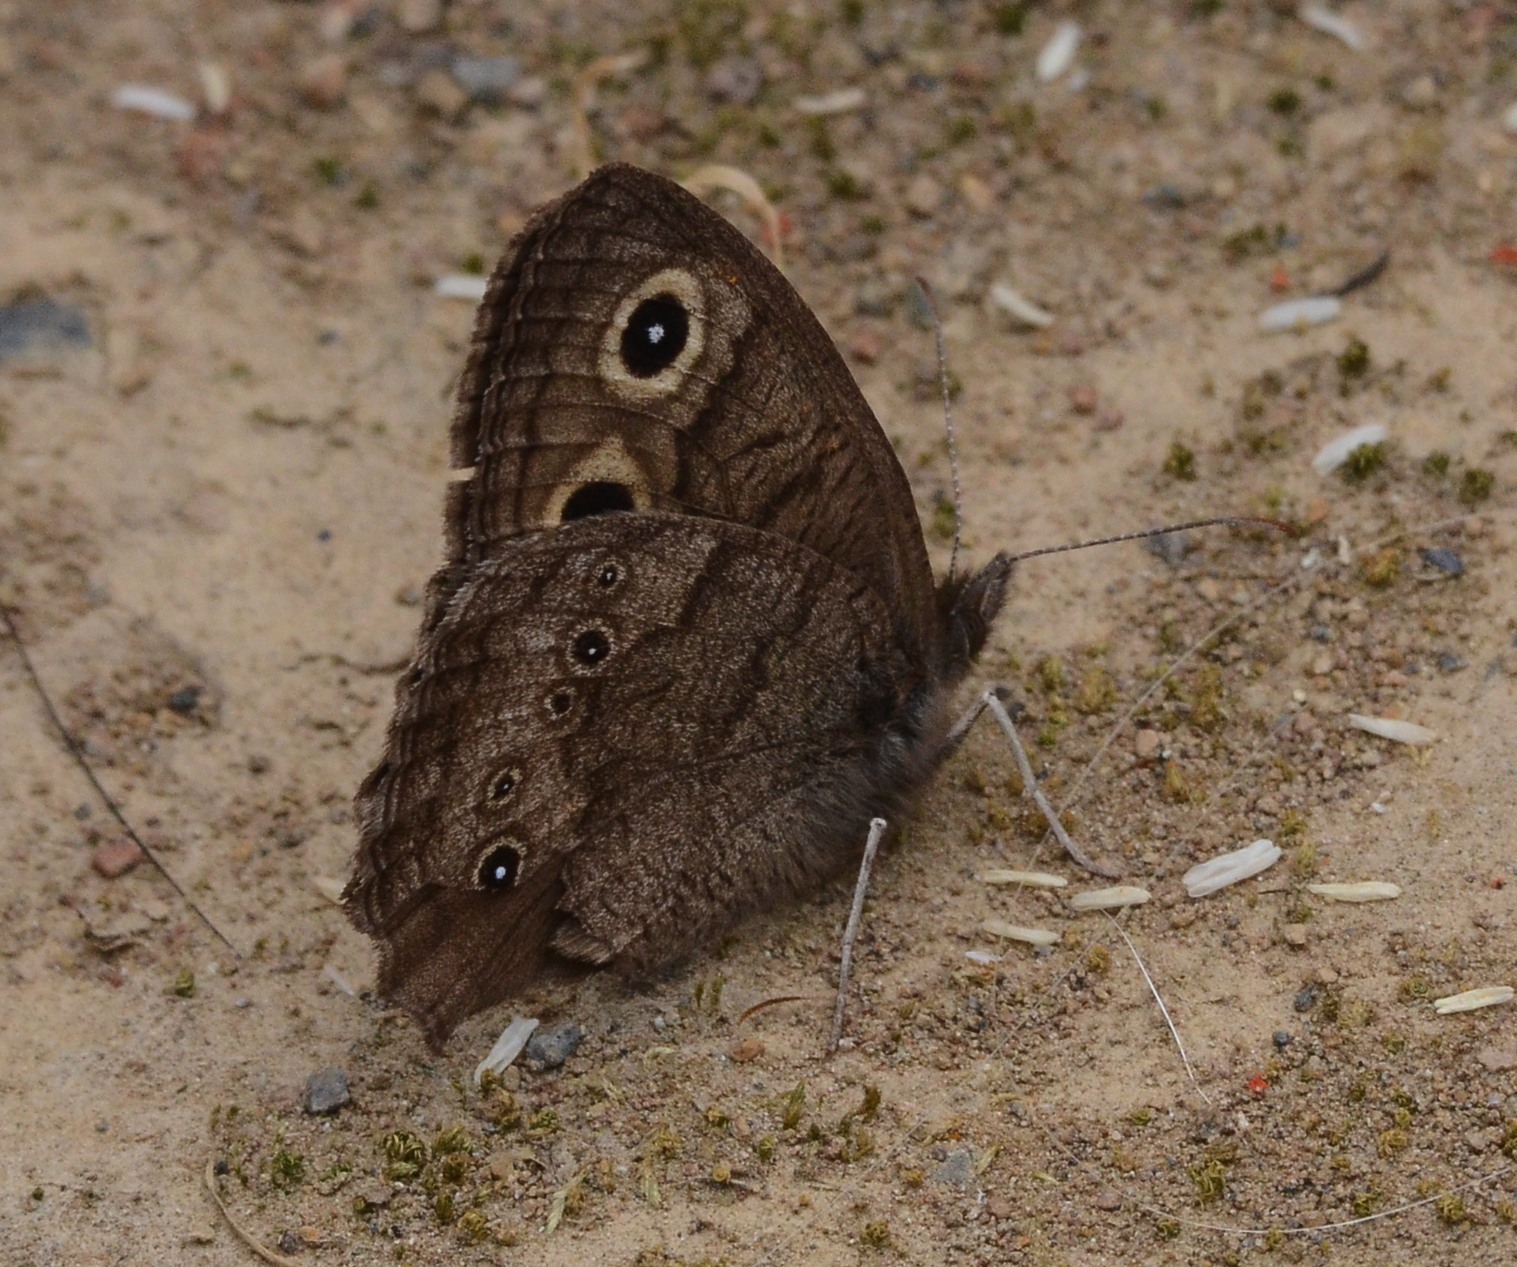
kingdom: Animalia
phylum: Arthropoda
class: Insecta
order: Lepidoptera
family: Nymphalidae
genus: Cercyonis
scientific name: Cercyonis pegala
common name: Common wood-nymph
